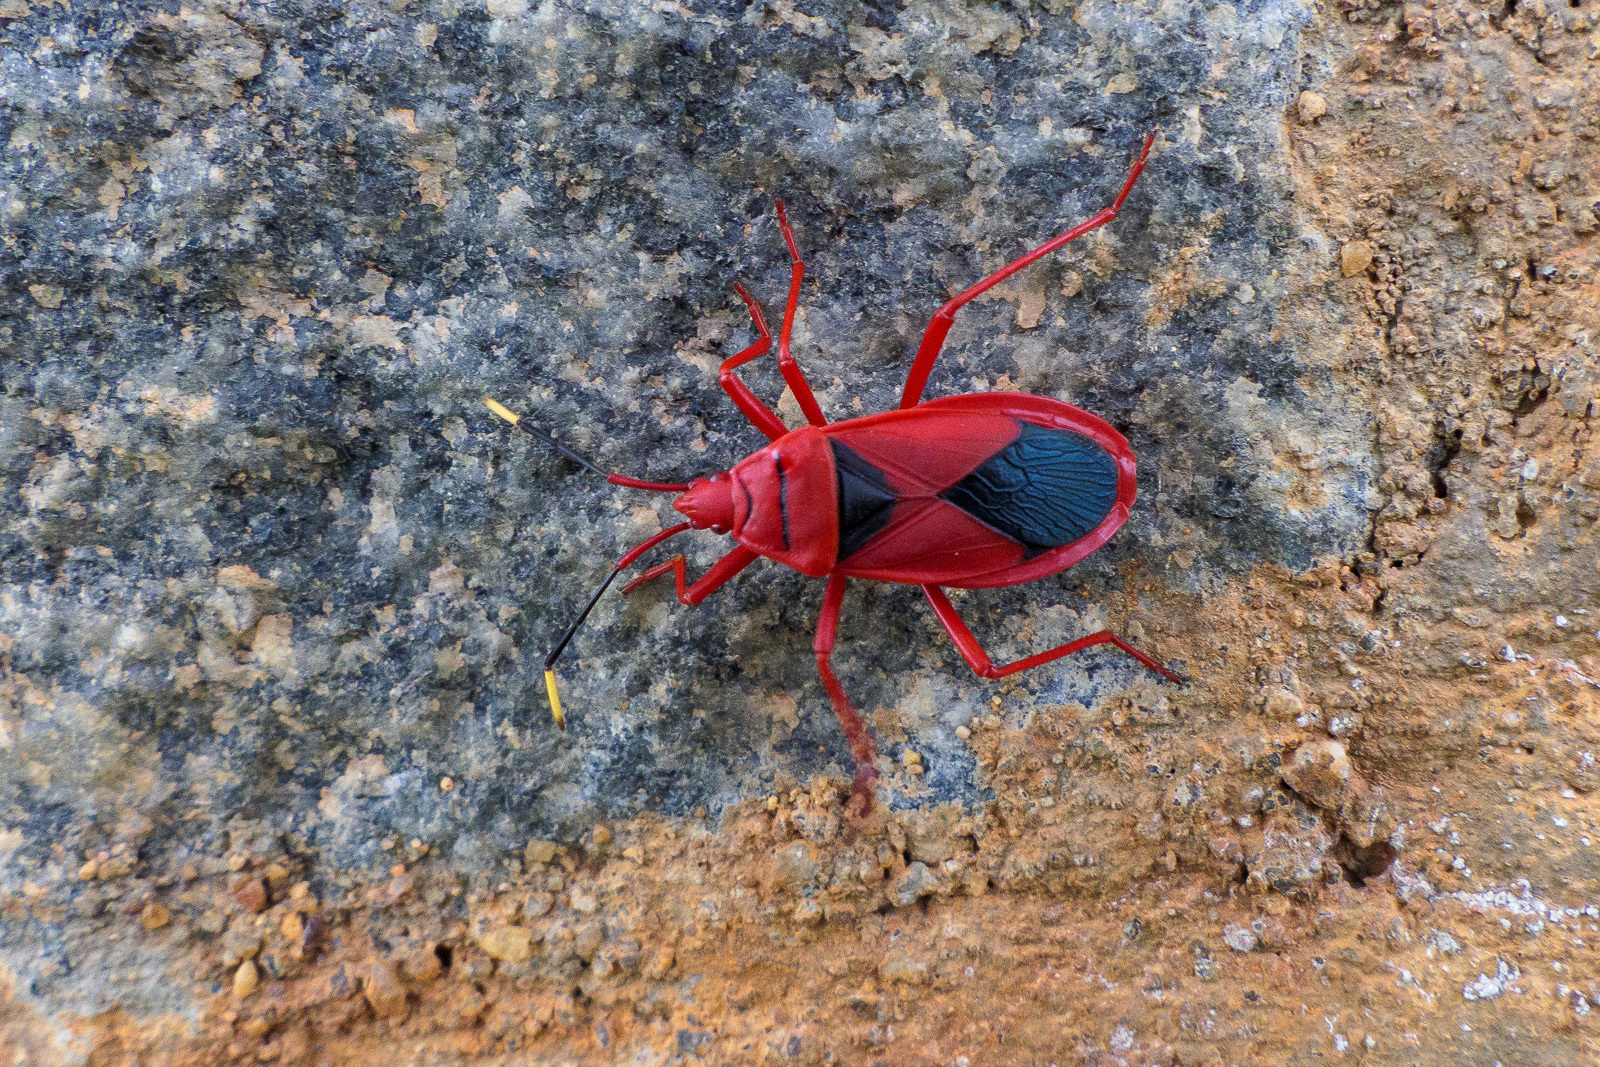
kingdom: Animalia
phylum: Arthropoda
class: Insecta
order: Hemiptera
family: Pyrrhocoridae
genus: Probergrothius
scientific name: Probergrothius
